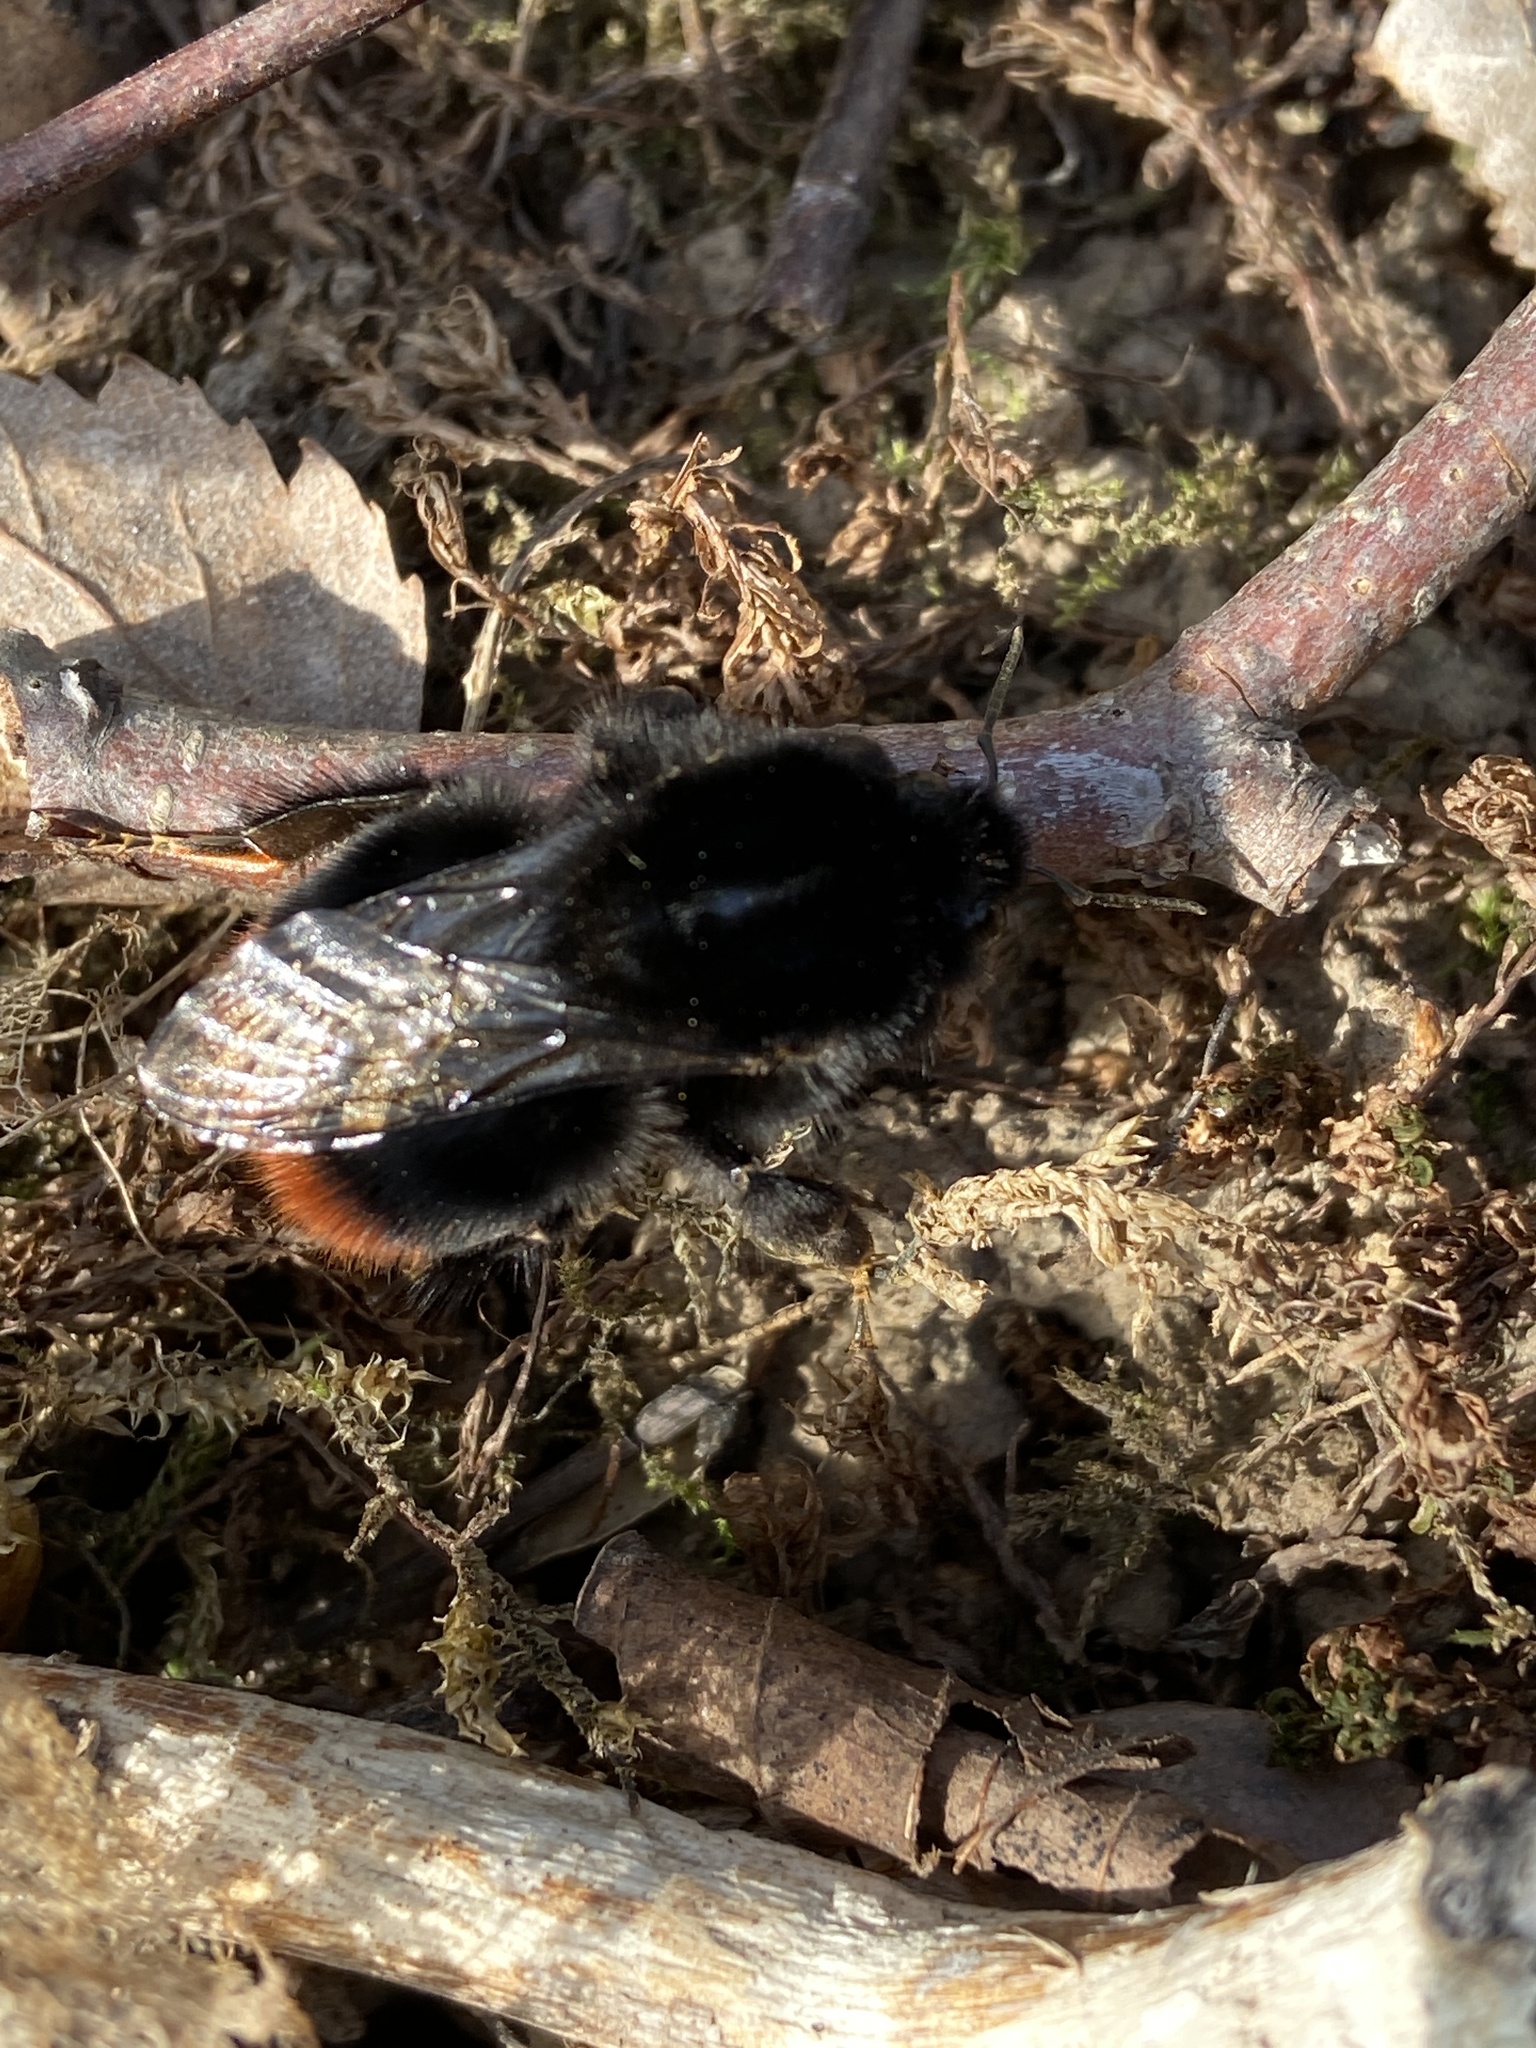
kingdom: Animalia
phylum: Arthropoda
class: Insecta
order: Hymenoptera
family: Apidae
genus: Bombus
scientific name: Bombus lapidarius
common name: Large red-tailed humble-bee
